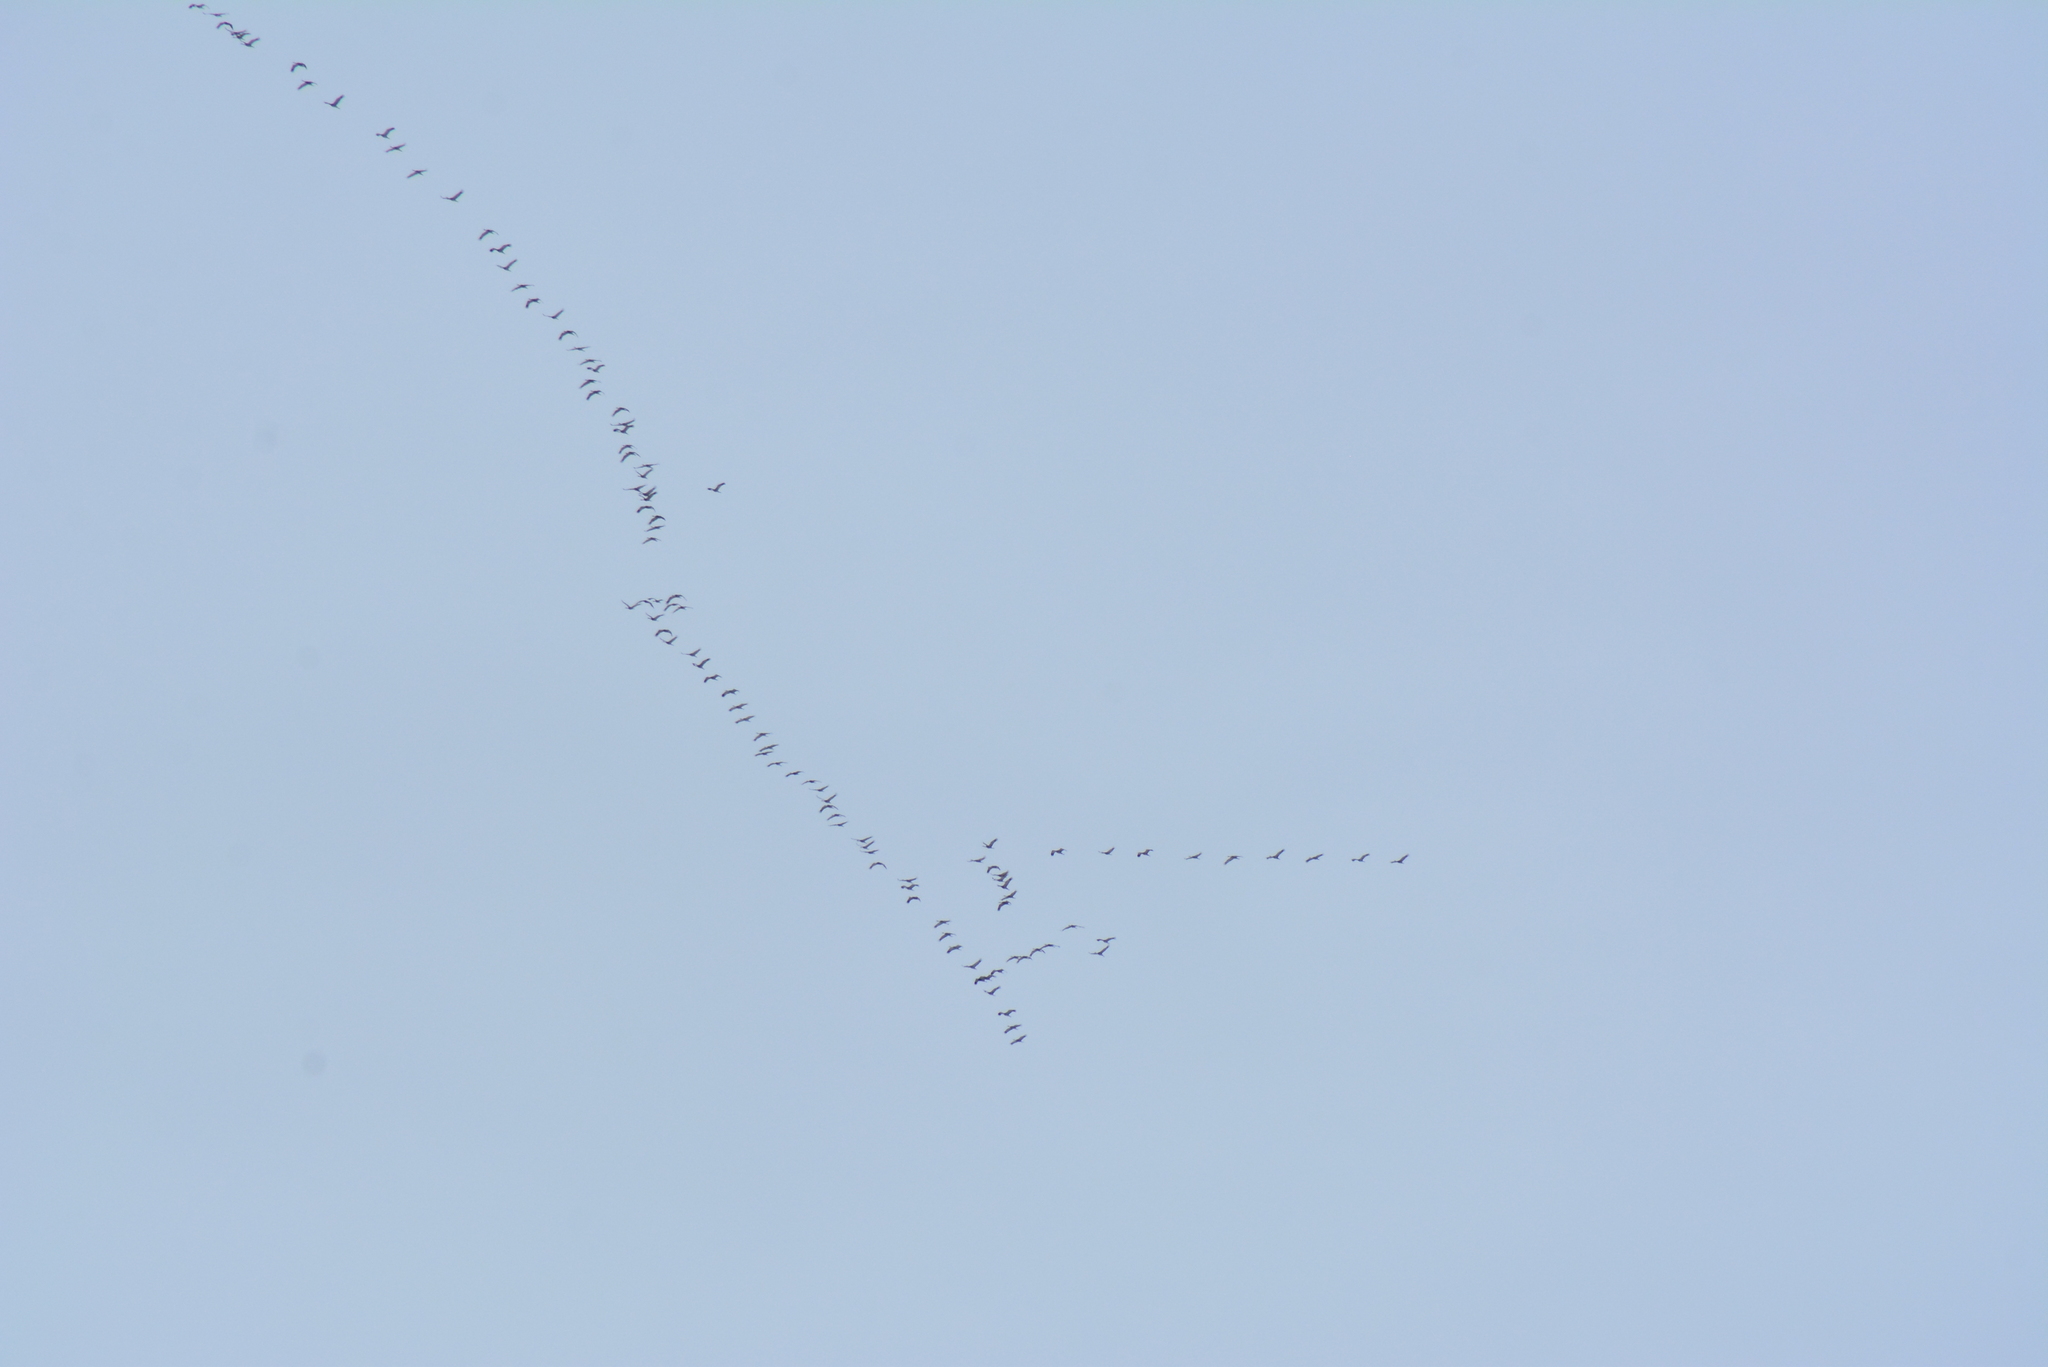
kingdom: Animalia
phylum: Chordata
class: Aves
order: Gruiformes
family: Gruidae
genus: Grus
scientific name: Grus canadensis
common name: Sandhill crane
